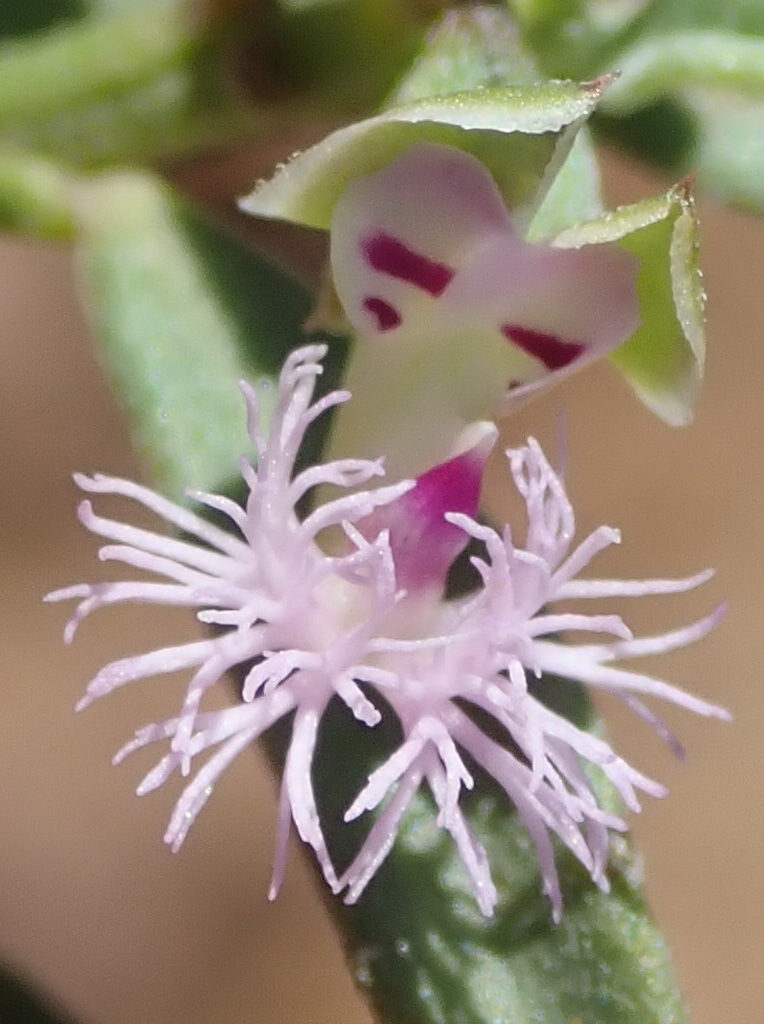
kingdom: Plantae
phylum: Tracheophyta
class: Magnoliopsida
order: Fabales
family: Polygalaceae
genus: Polygala
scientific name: Polygala asbestina
